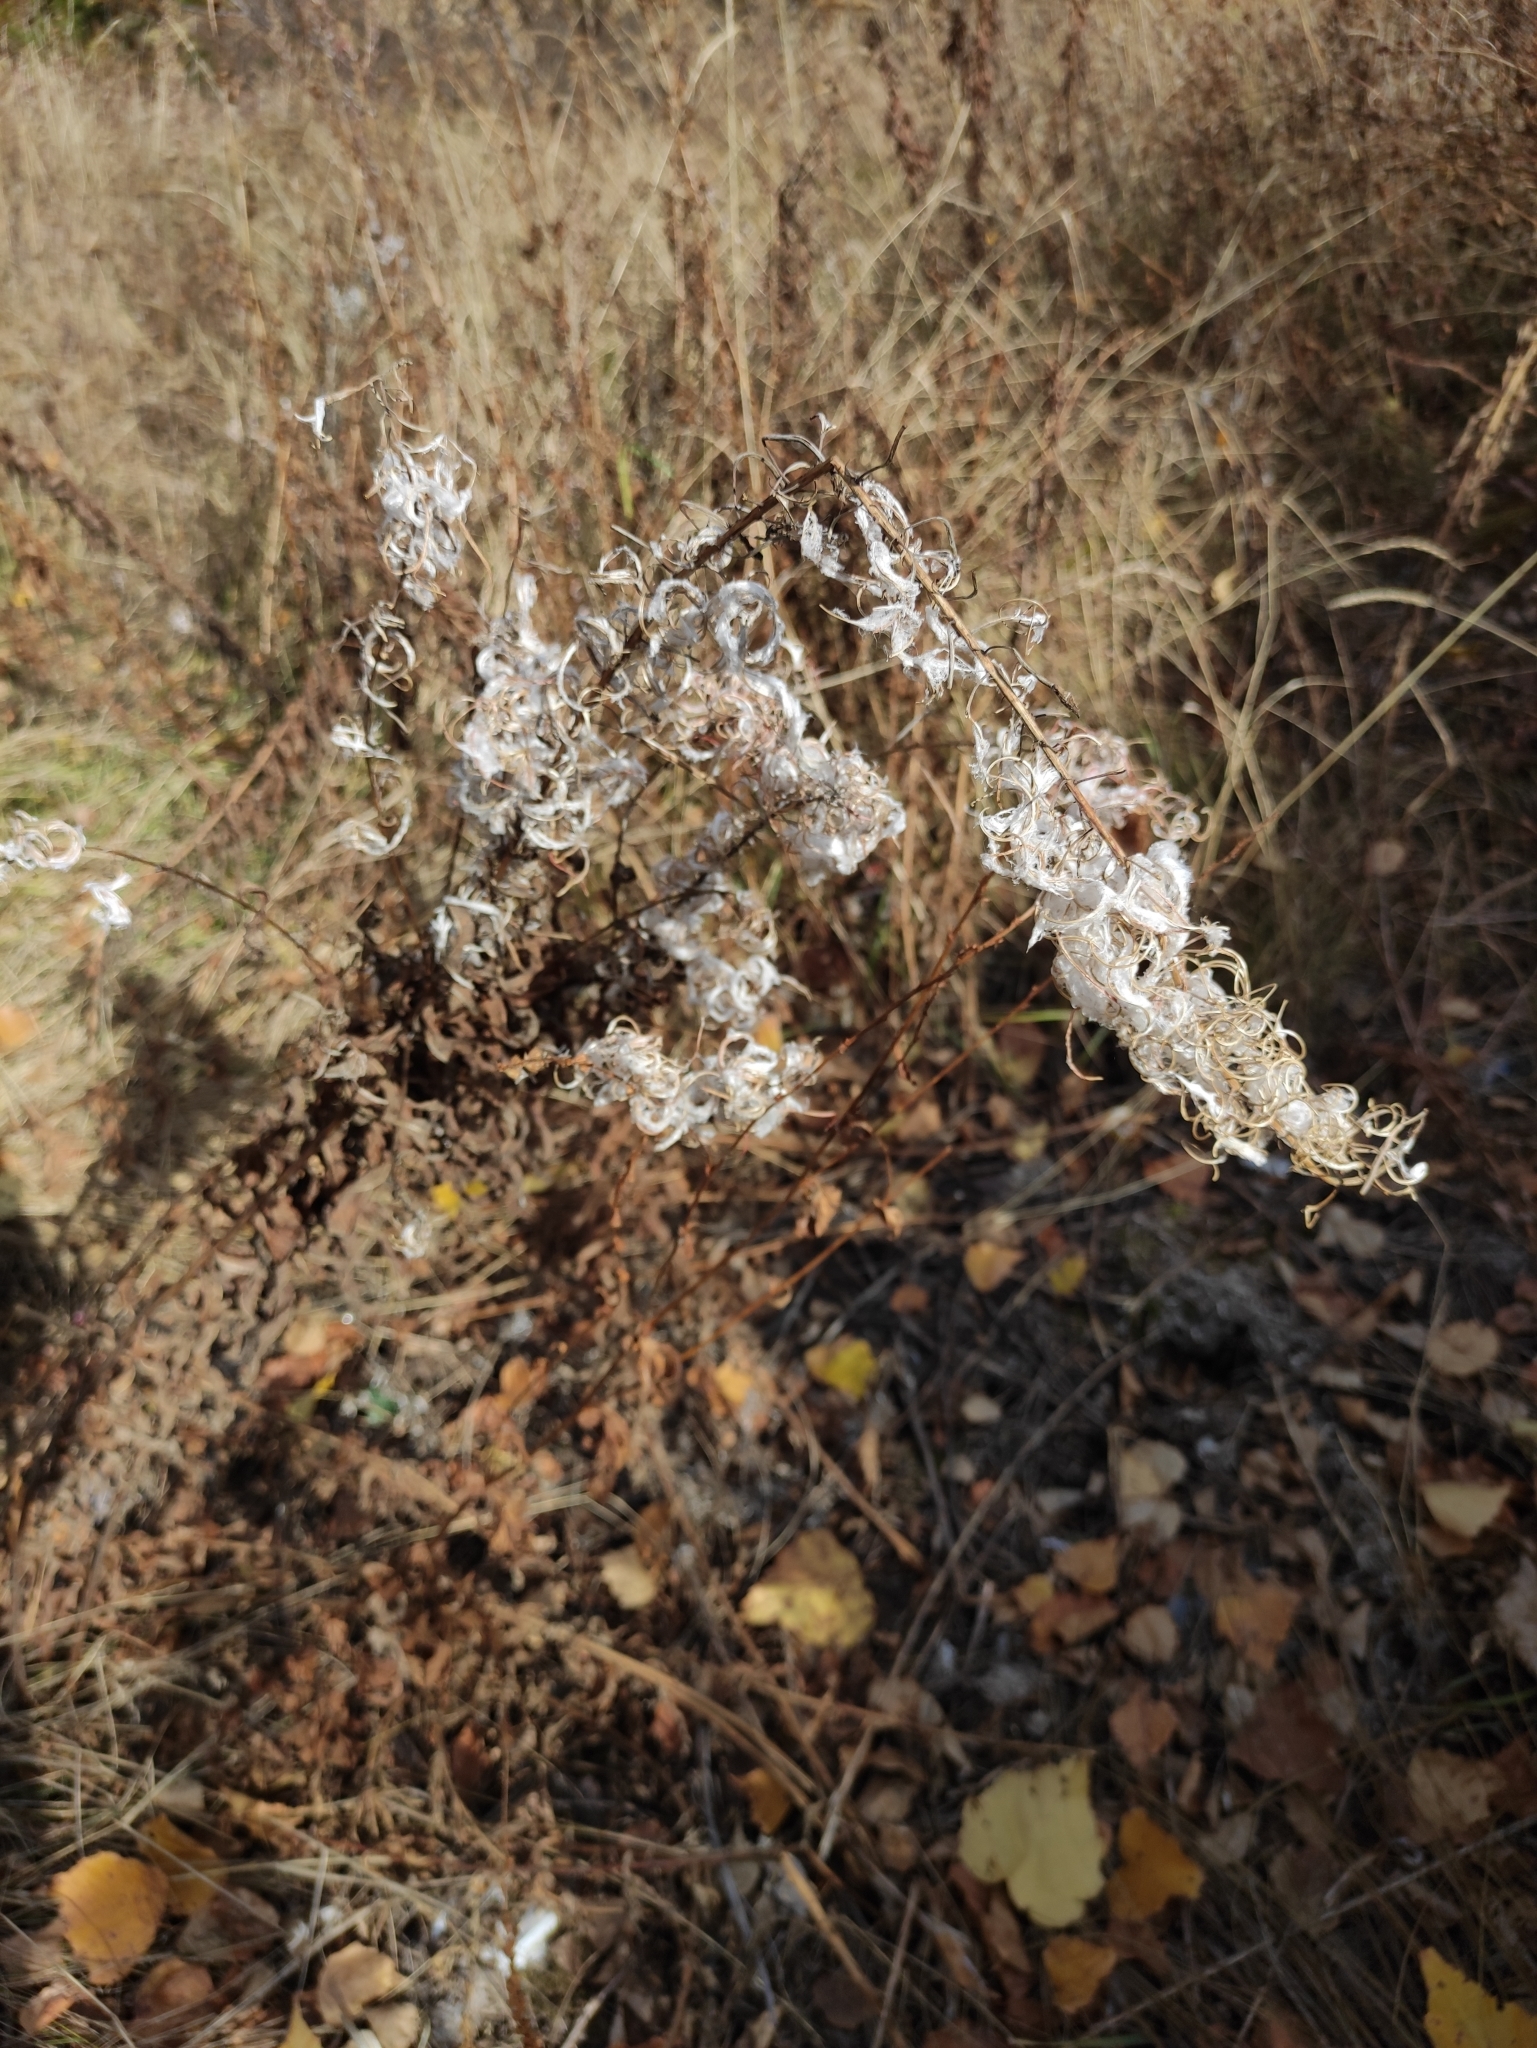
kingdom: Plantae
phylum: Tracheophyta
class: Magnoliopsida
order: Myrtales
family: Onagraceae
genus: Chamaenerion
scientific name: Chamaenerion angustifolium
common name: Fireweed
